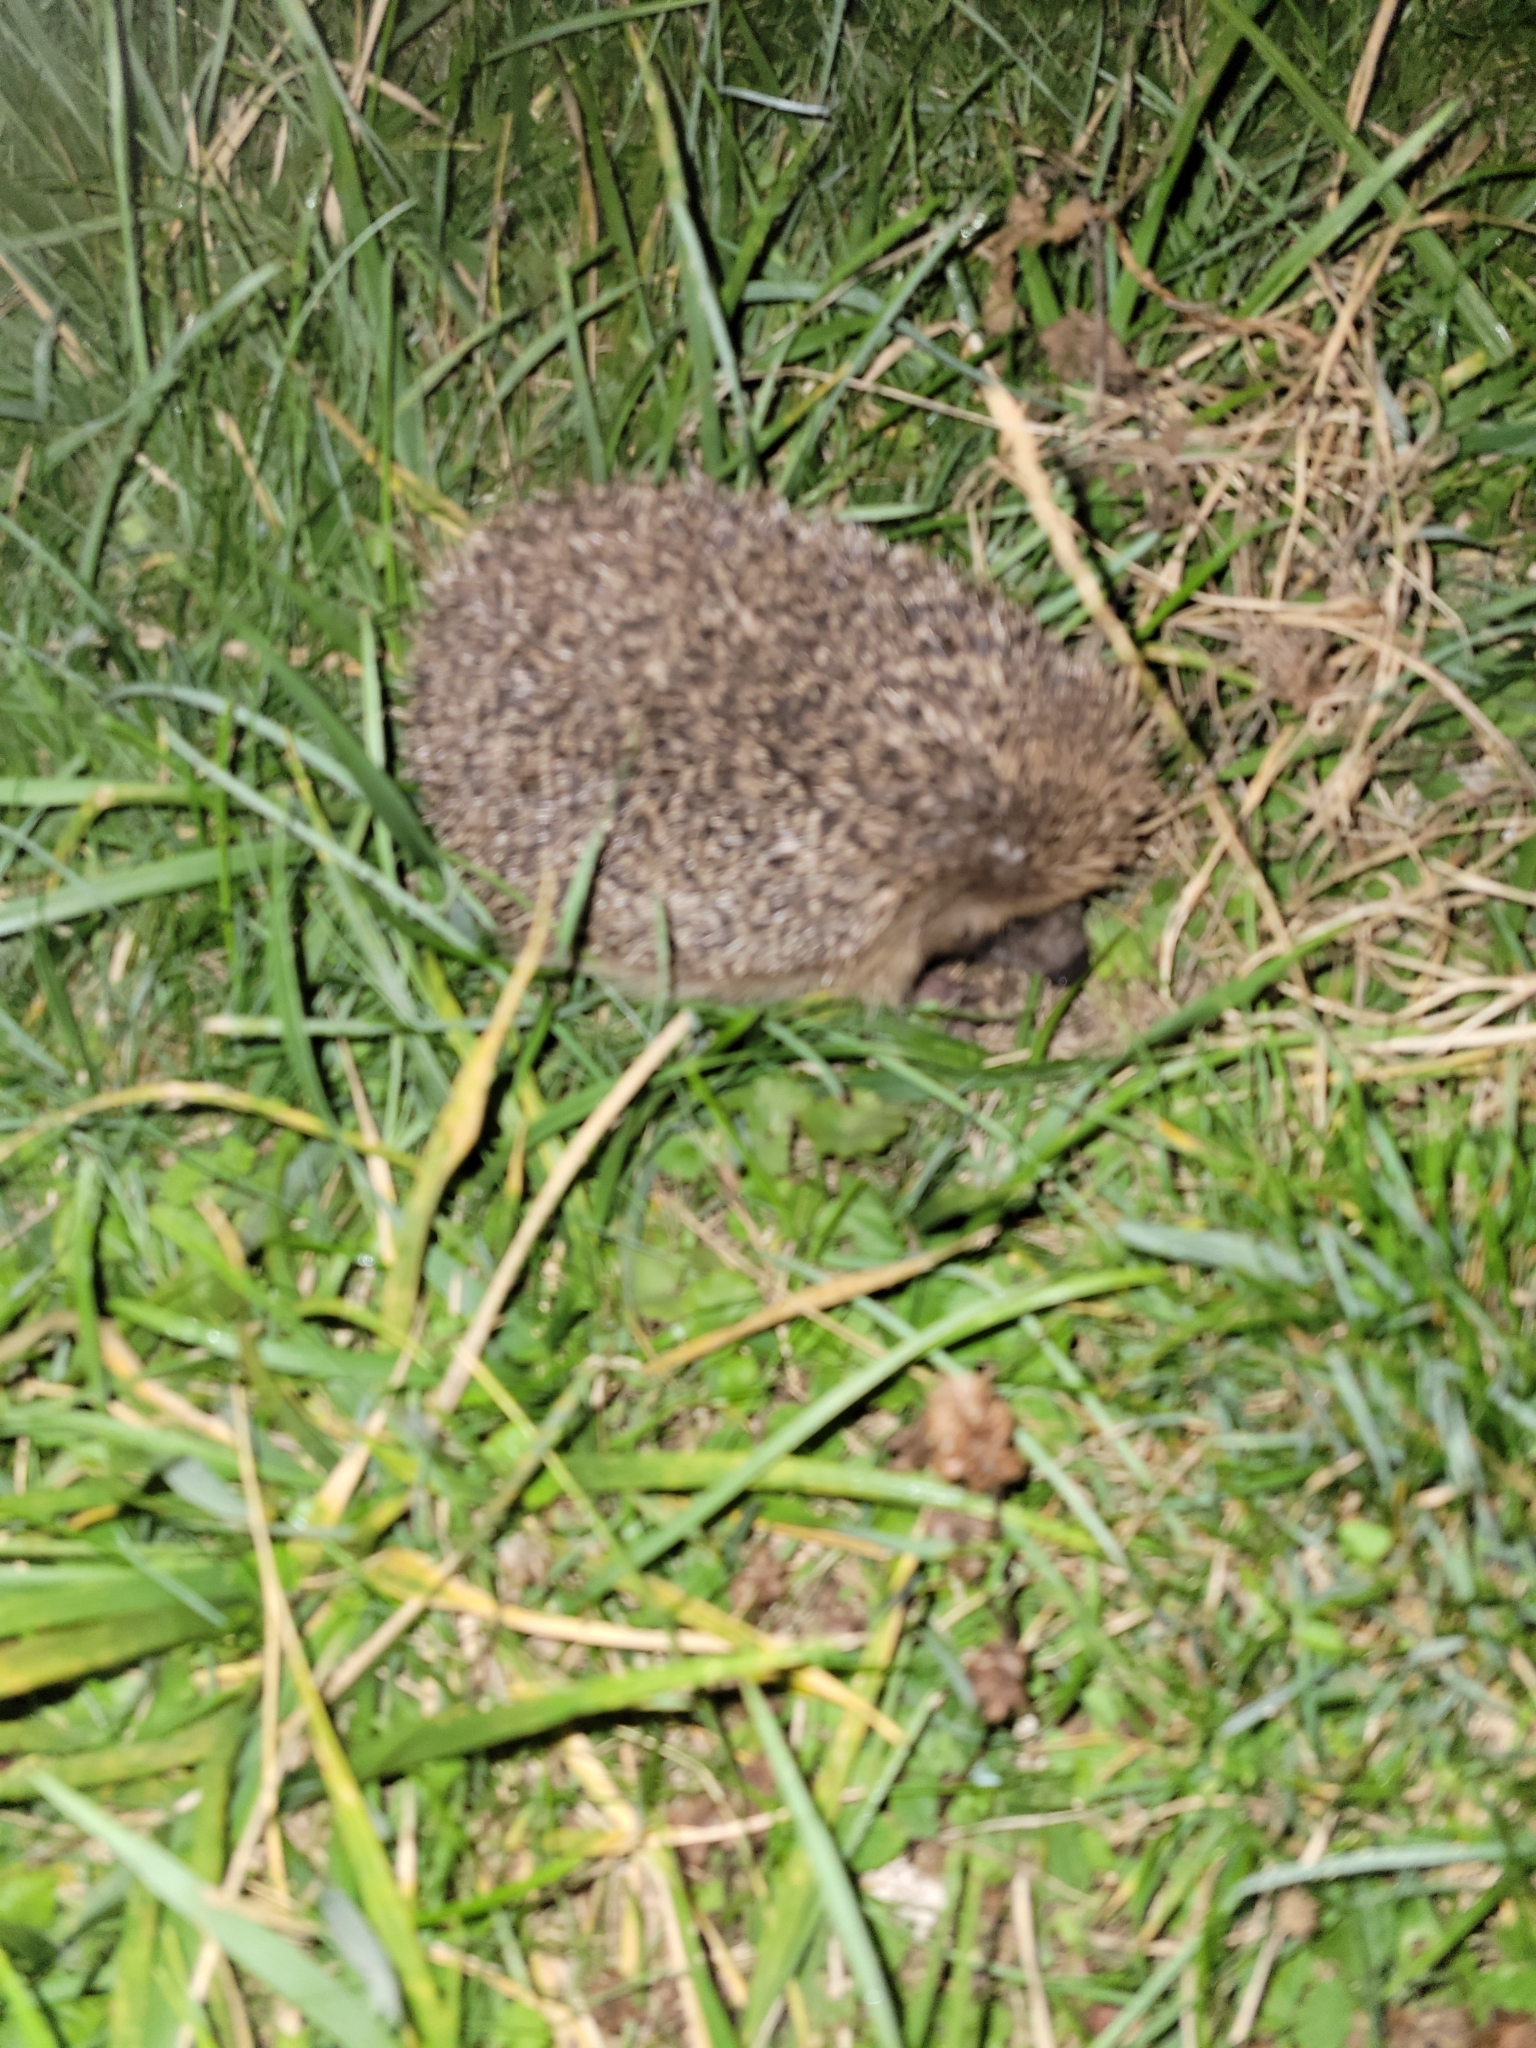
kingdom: Animalia
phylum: Chordata
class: Mammalia
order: Erinaceomorpha
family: Erinaceidae
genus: Erinaceus
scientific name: Erinaceus europaeus
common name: West european hedgehog
